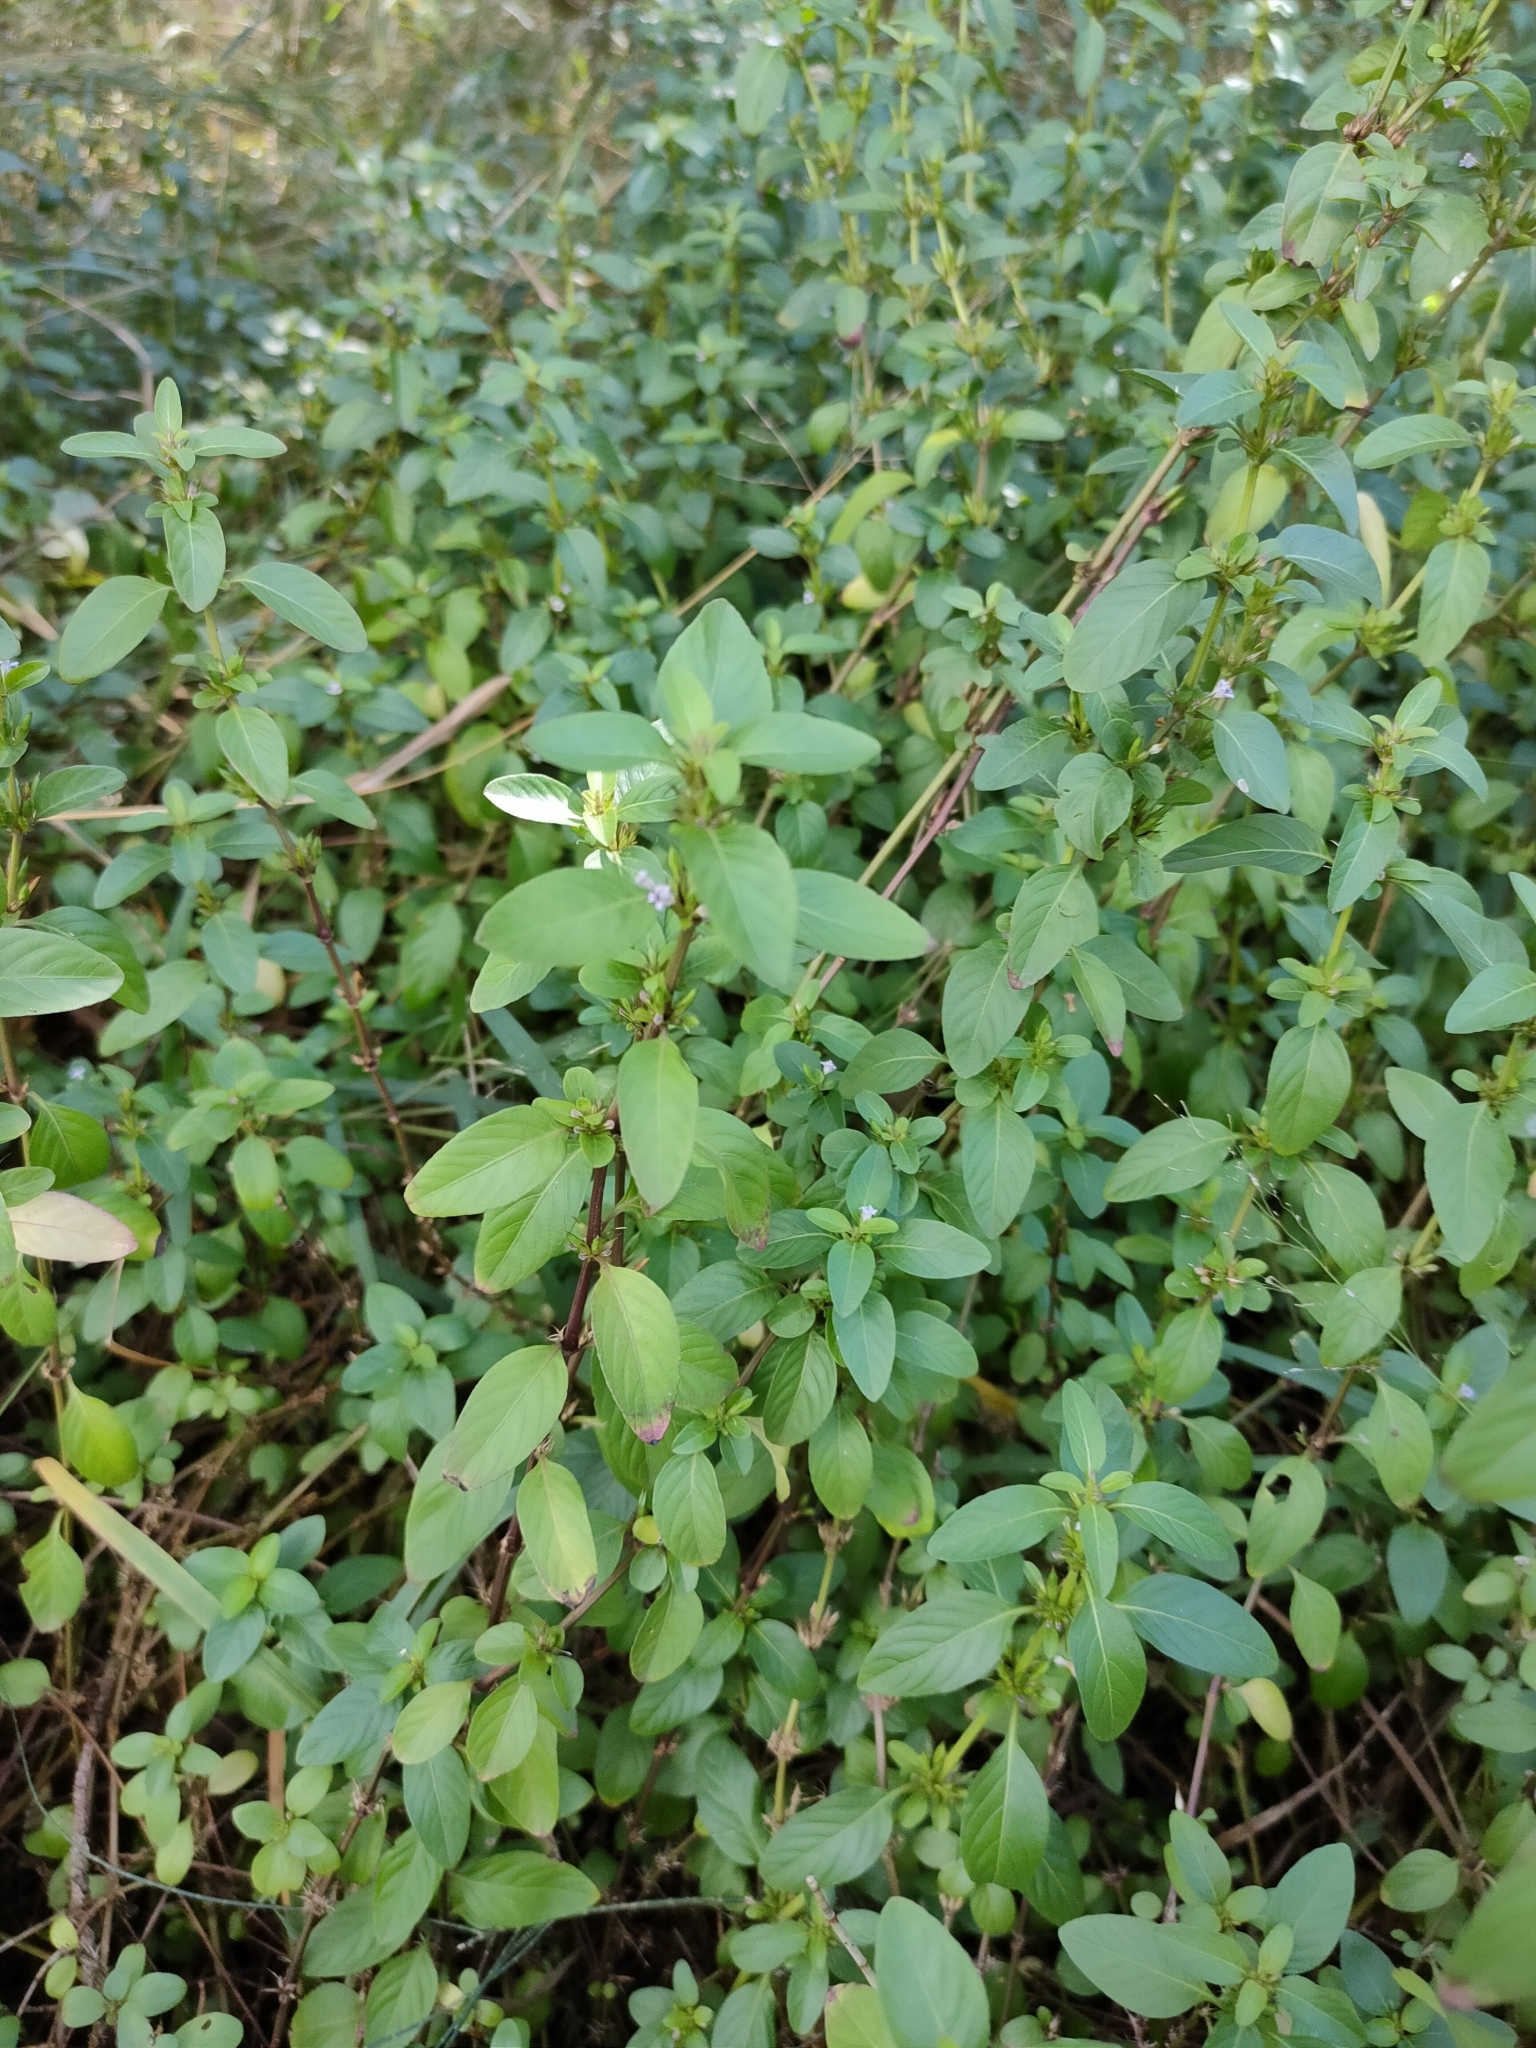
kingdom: Plantae
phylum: Tracheophyta
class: Magnoliopsida
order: Lamiales
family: Acanthaceae
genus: Hygrophila
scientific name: Hygrophila erecta
